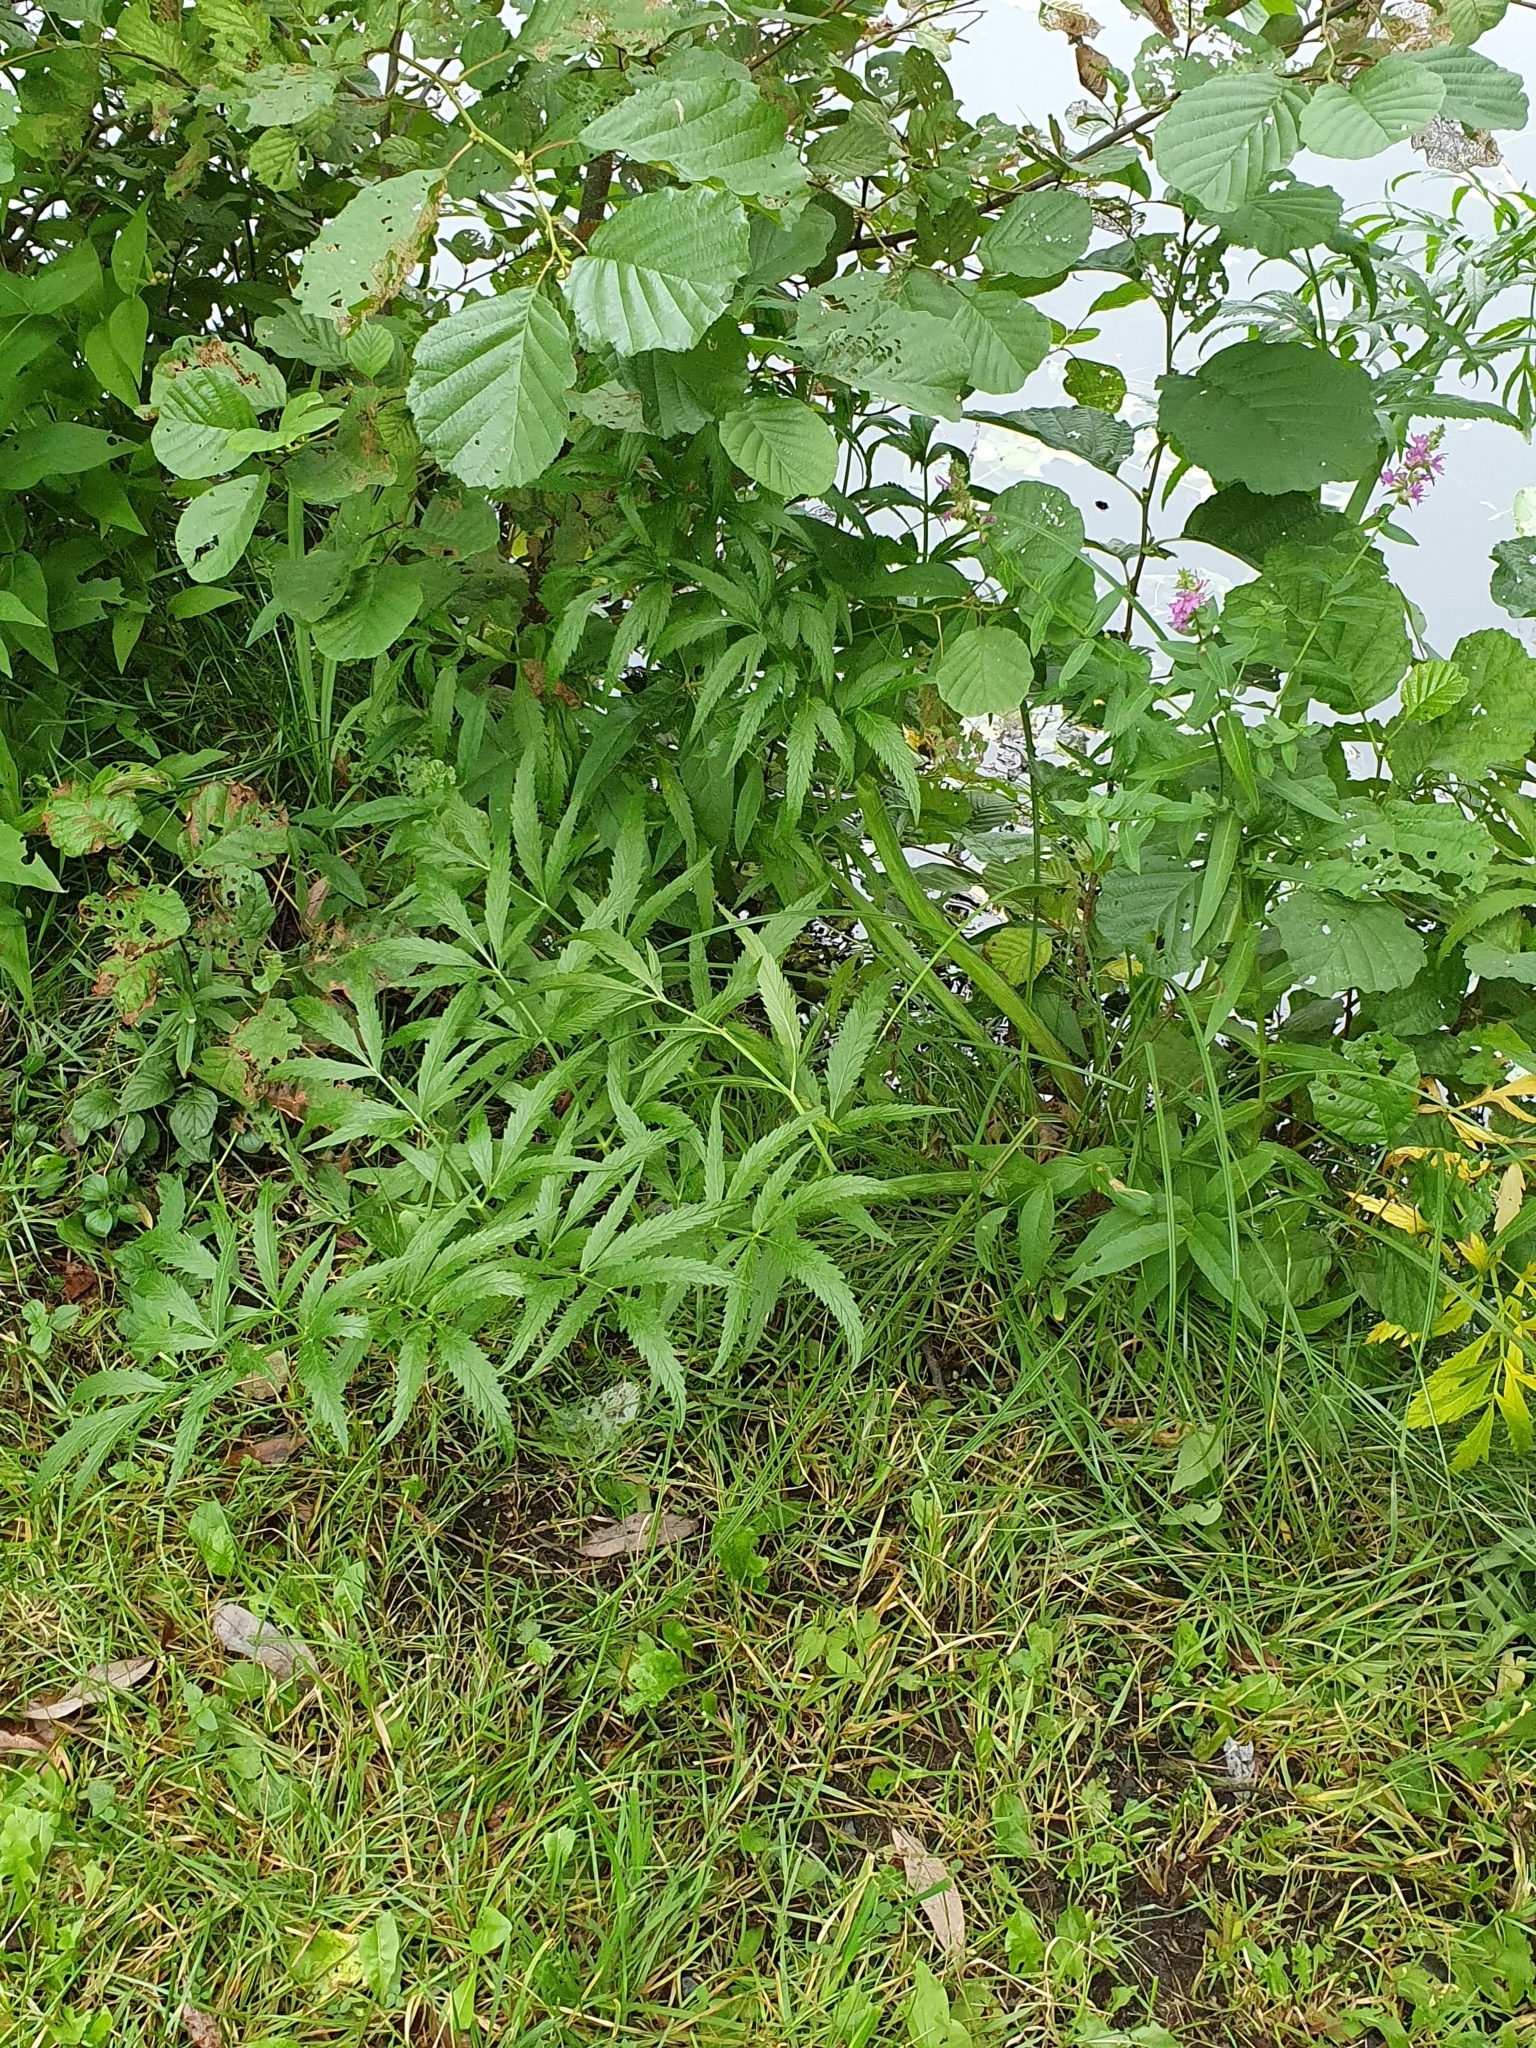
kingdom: Plantae
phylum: Tracheophyta
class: Magnoliopsida
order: Apiales
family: Apiaceae
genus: Cicuta
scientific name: Cicuta virosa
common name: Cowbane
